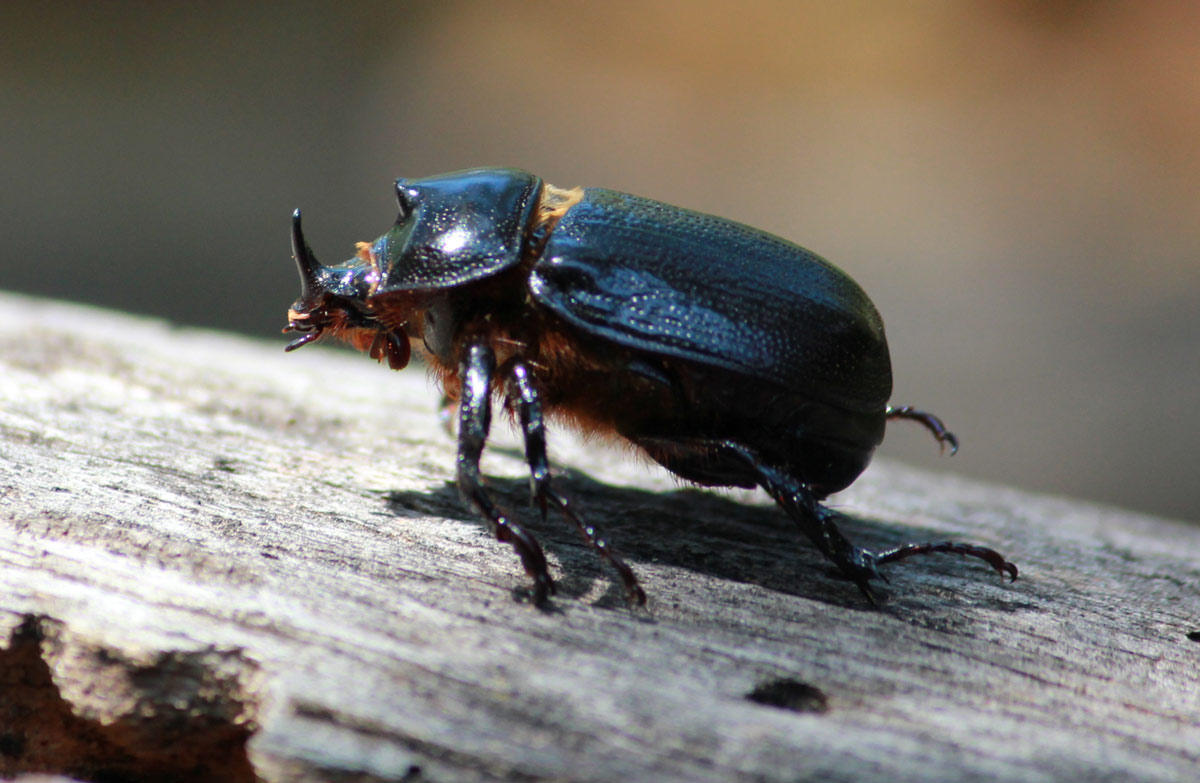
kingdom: Animalia
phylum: Arthropoda
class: Insecta
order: Coleoptera
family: Scarabaeidae
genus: Cyphonistes
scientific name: Cyphonistes vallatus
